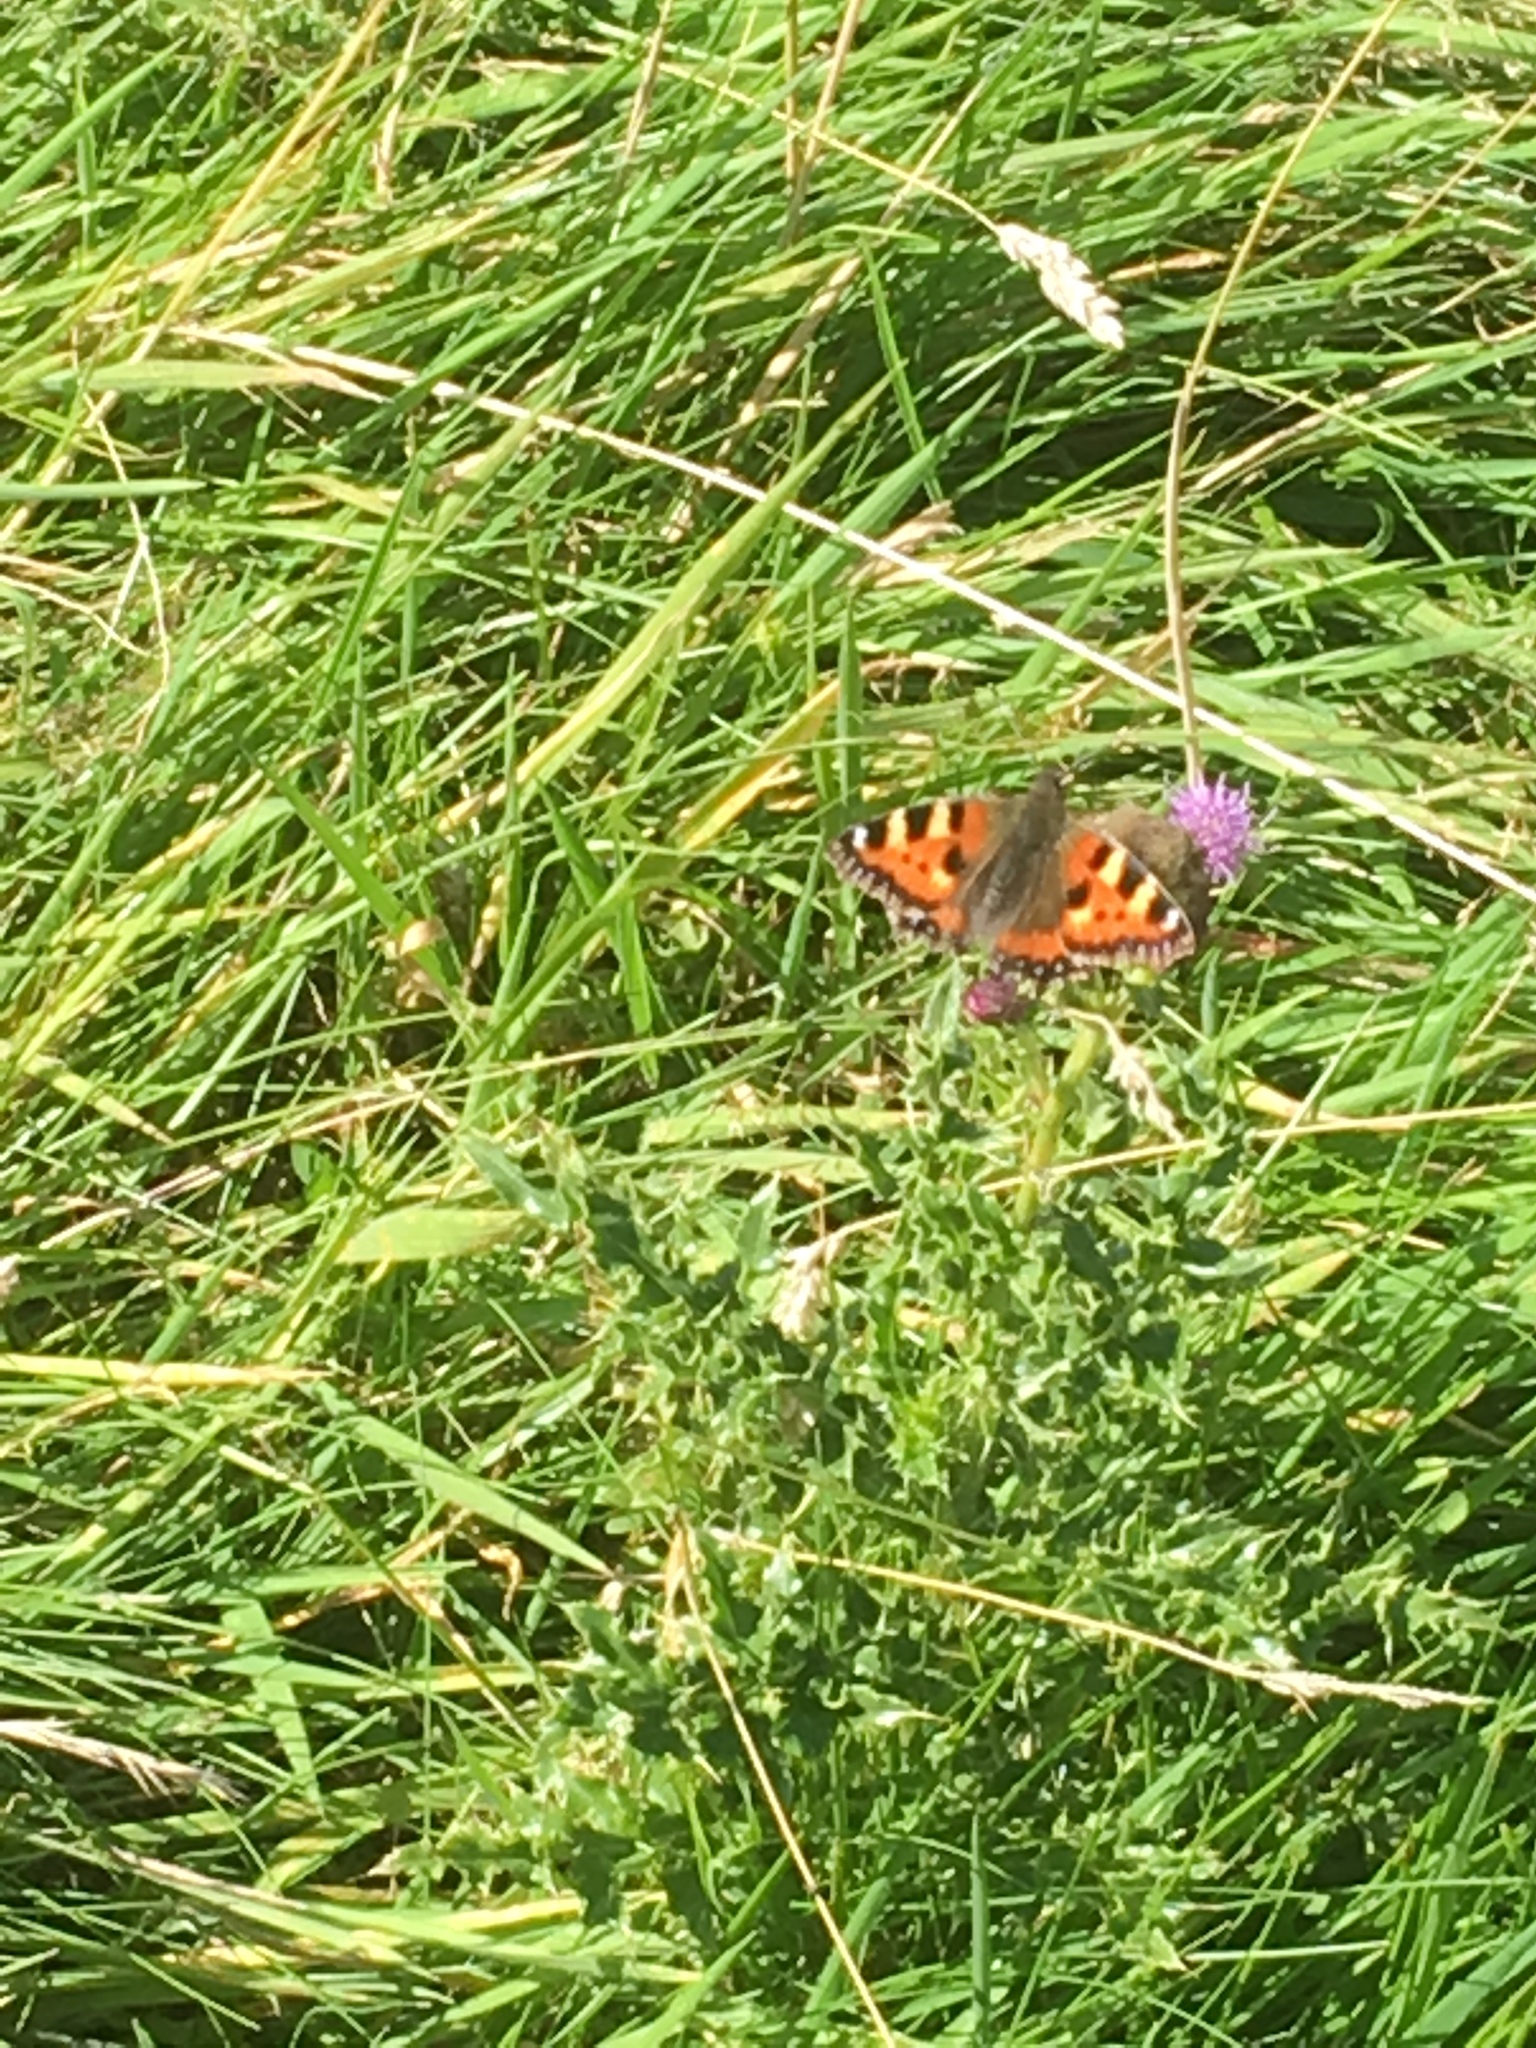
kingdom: Animalia
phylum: Arthropoda
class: Insecta
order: Lepidoptera
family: Nymphalidae
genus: Aglais
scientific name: Aglais urticae
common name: Small tortoiseshell
